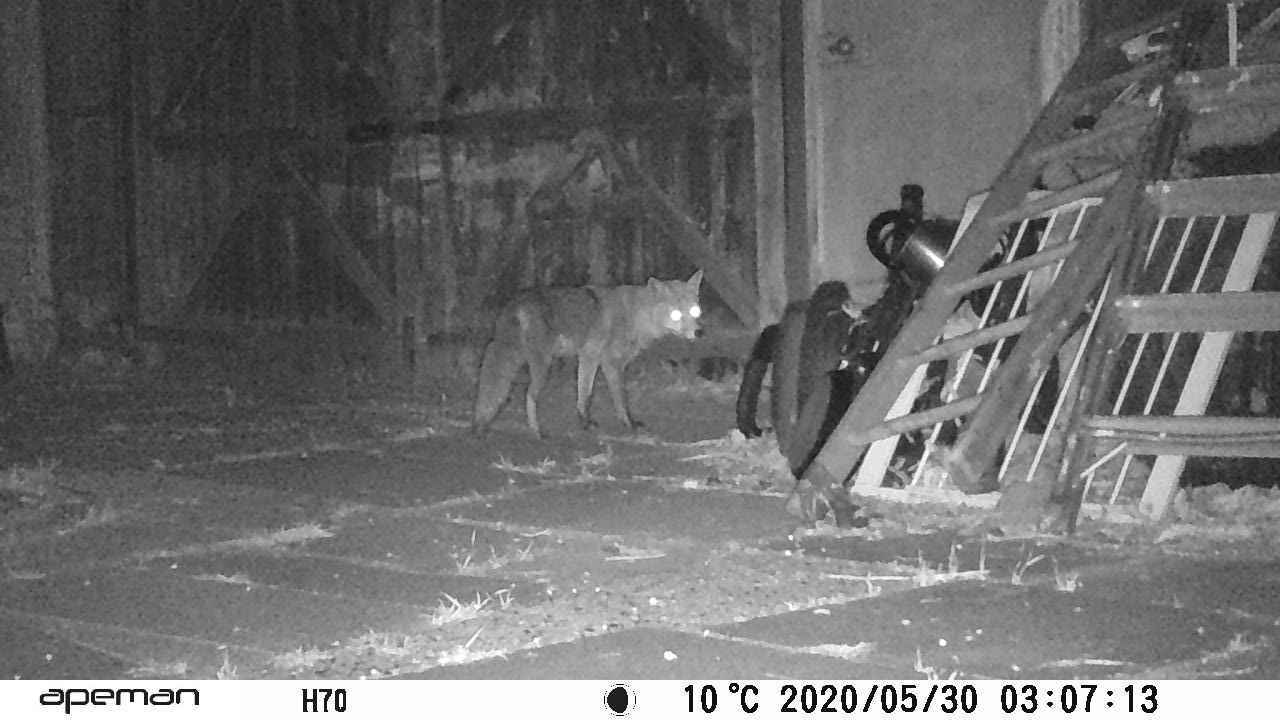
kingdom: Animalia
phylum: Chordata
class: Mammalia
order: Carnivora
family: Canidae
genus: Vulpes
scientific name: Vulpes vulpes
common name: Red fox
